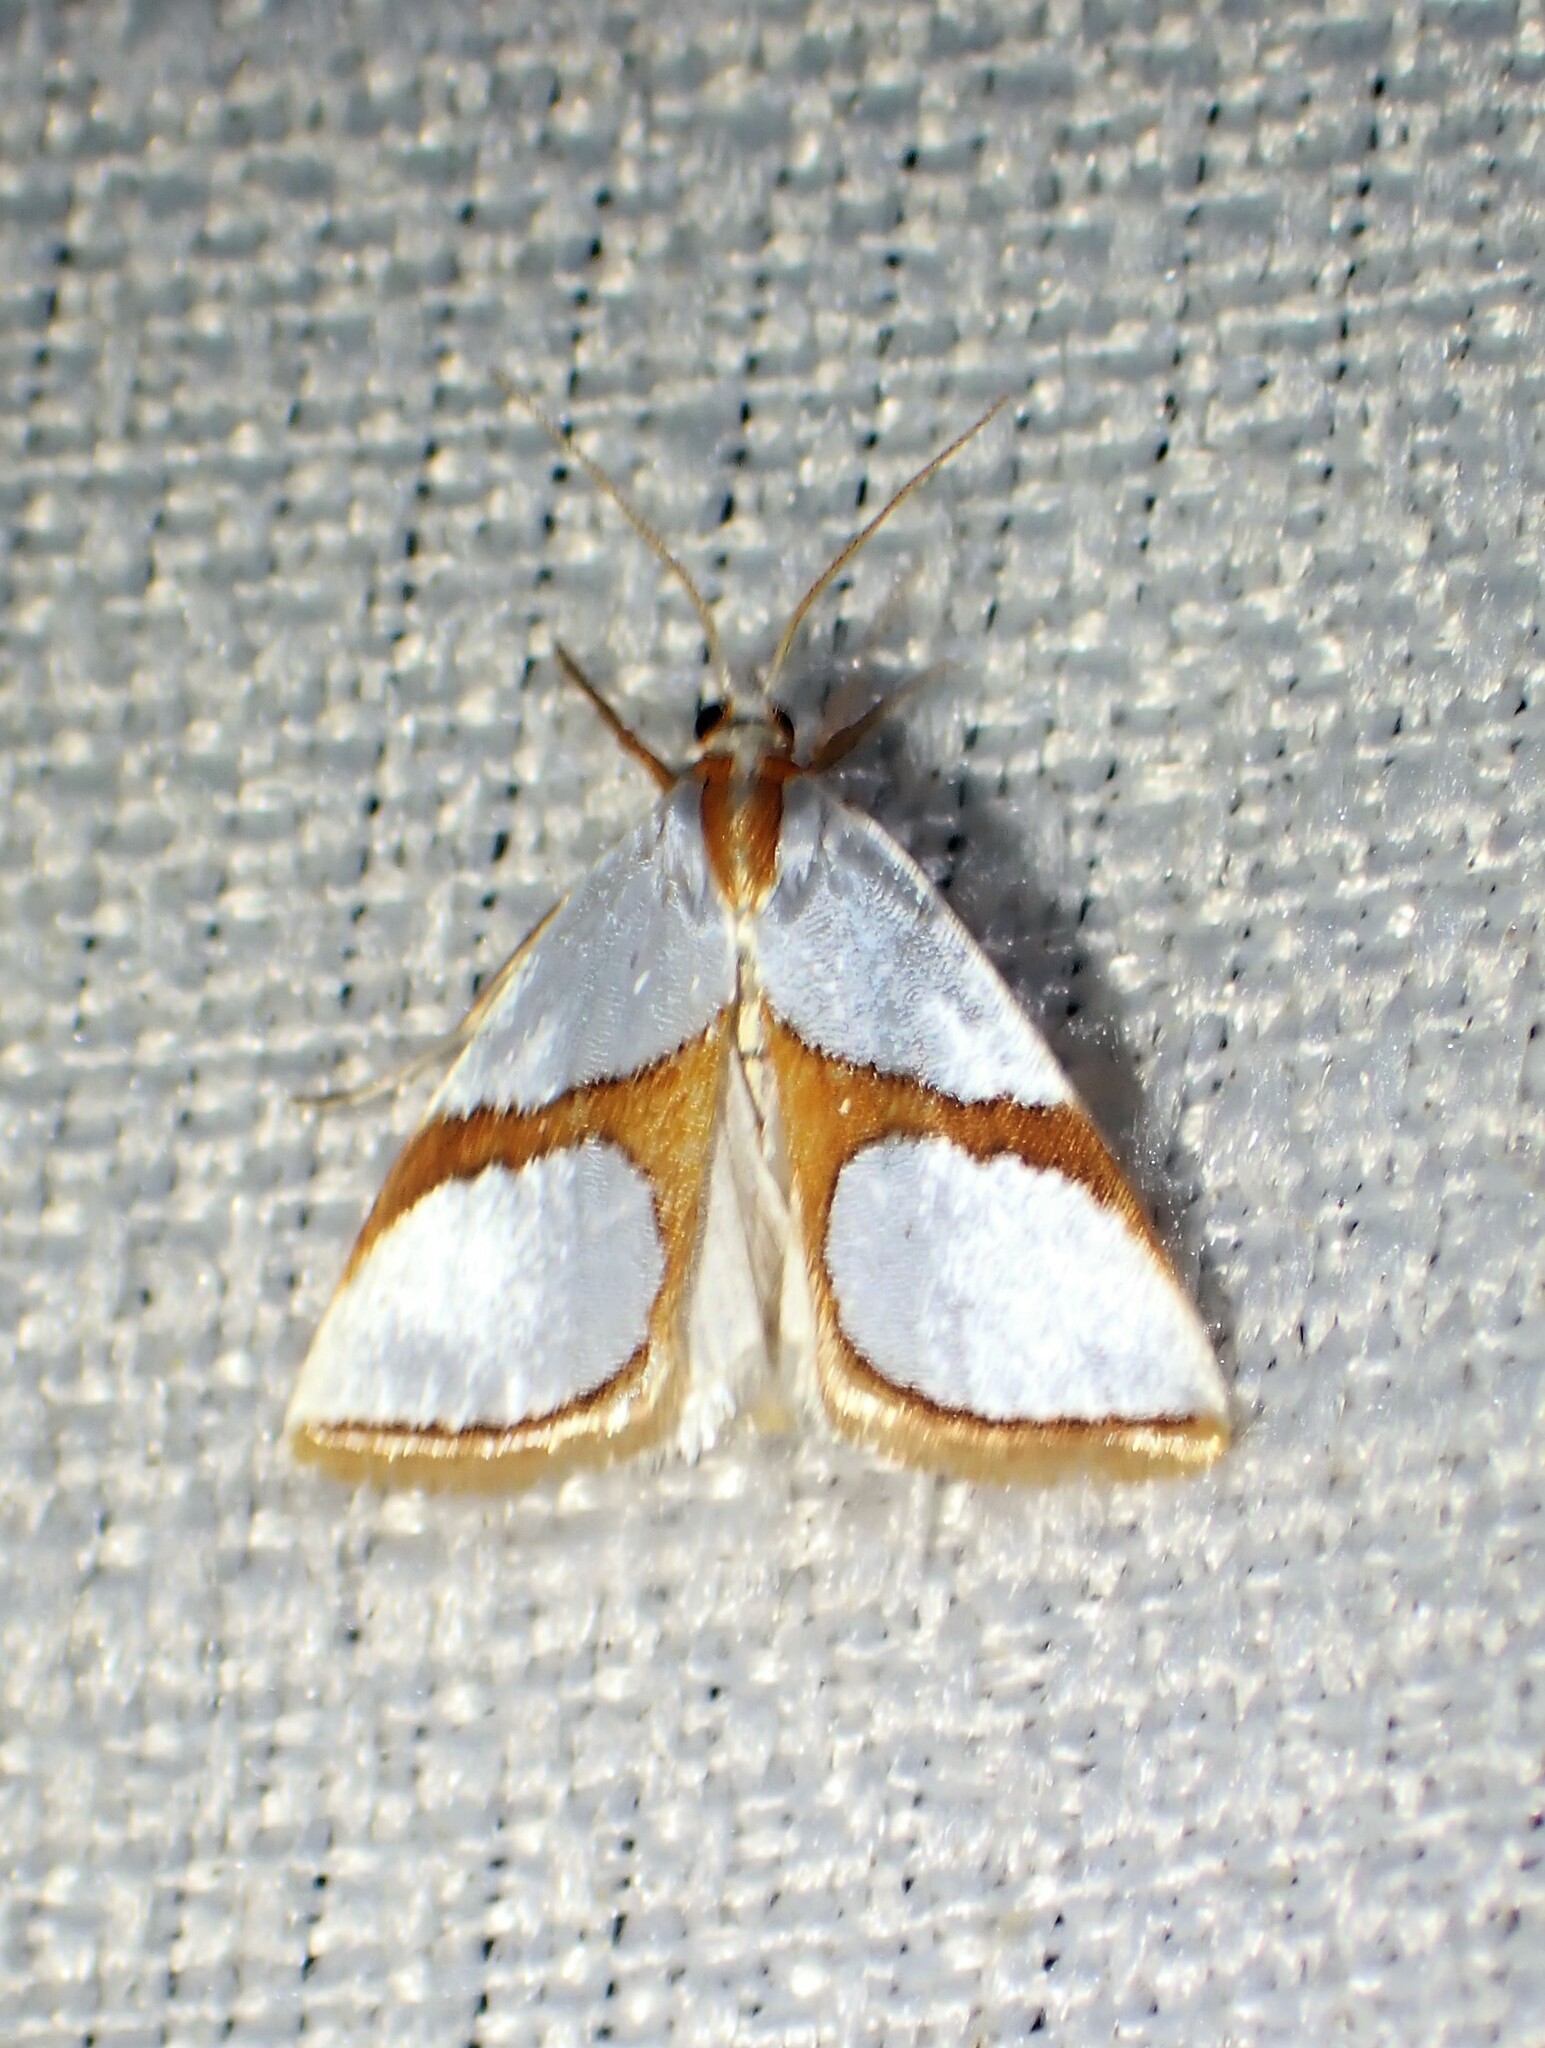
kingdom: Animalia
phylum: Arthropoda
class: Insecta
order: Lepidoptera
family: Crambidae
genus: Argyria
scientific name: Argyria auratella
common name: Curve-lined argyria moth
